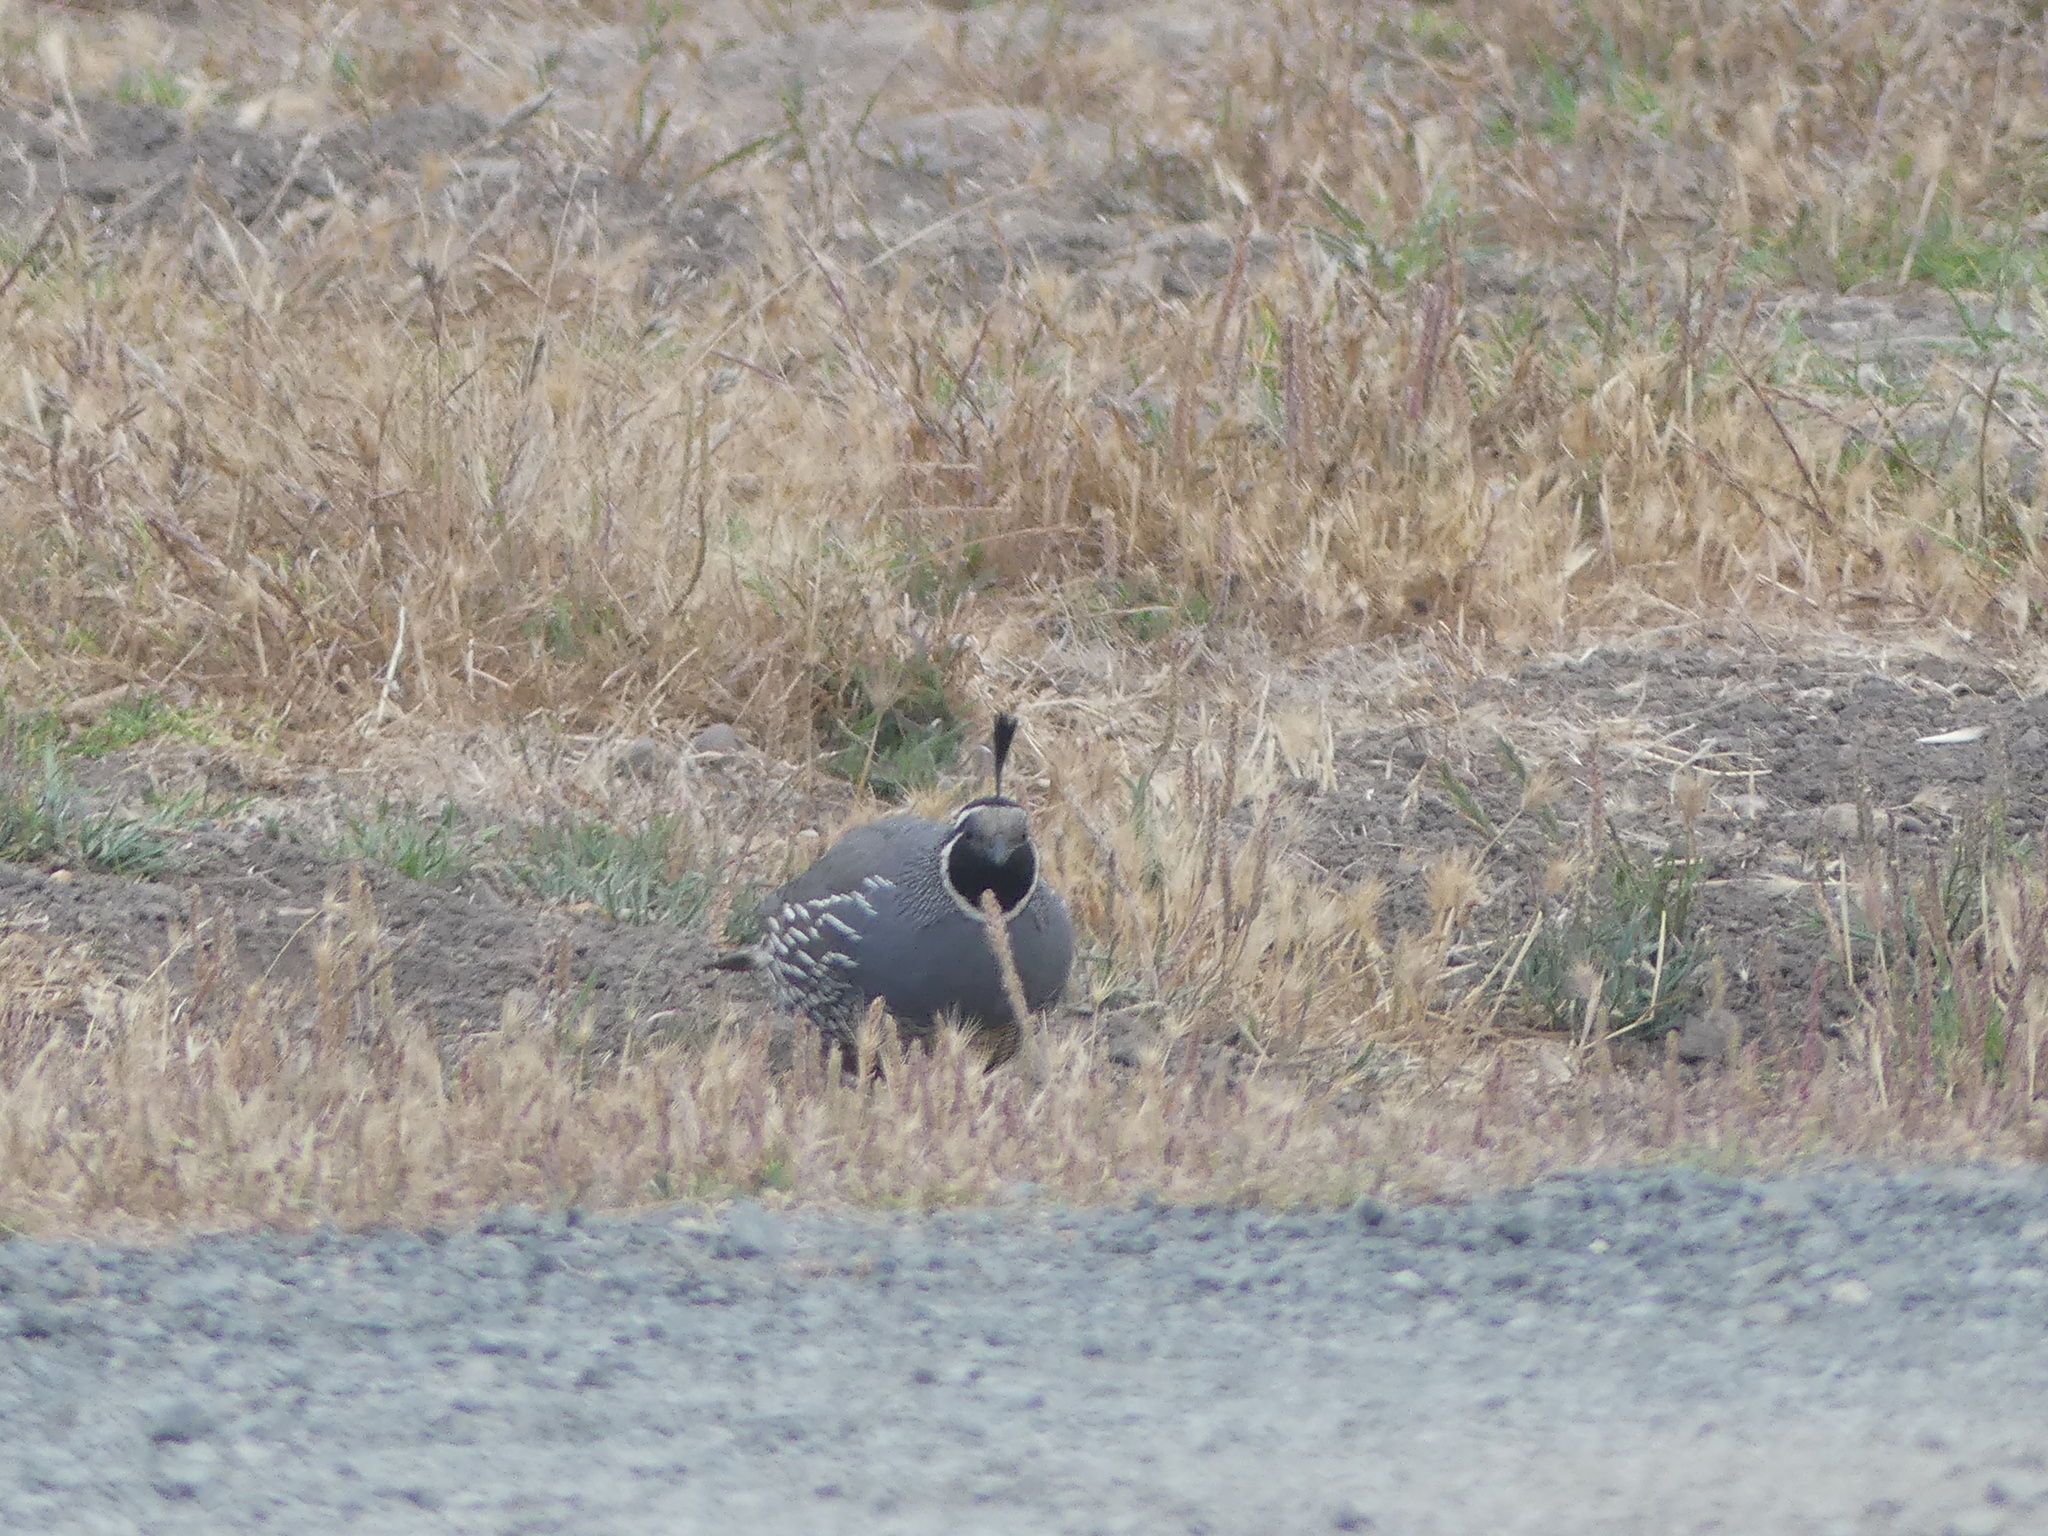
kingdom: Animalia
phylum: Chordata
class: Aves
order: Galliformes
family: Odontophoridae
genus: Callipepla
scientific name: Callipepla californica
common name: California quail
